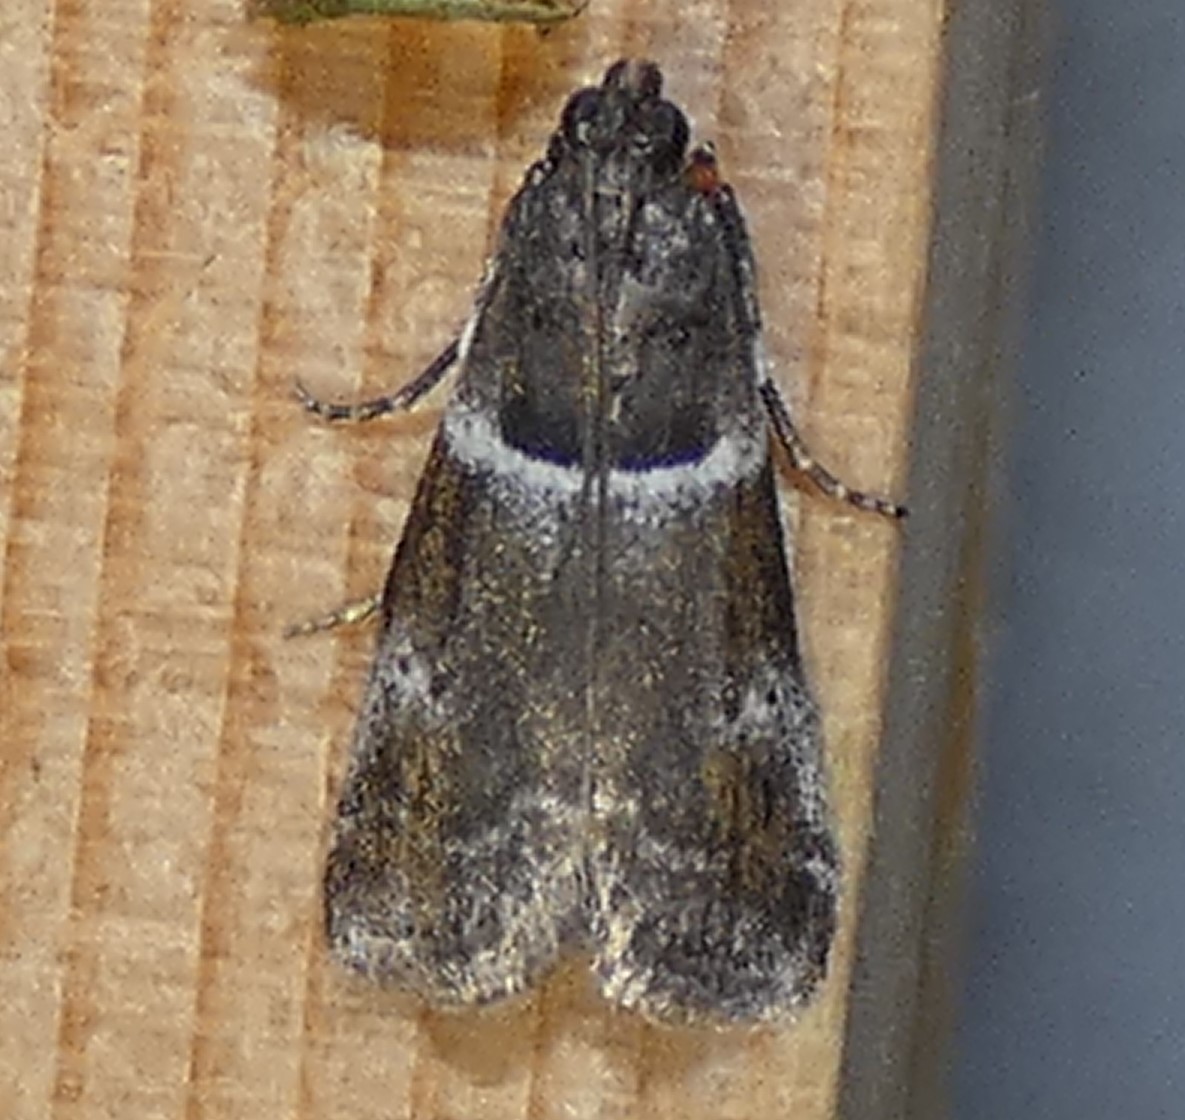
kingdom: Animalia
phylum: Arthropoda
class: Insecta
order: Lepidoptera
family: Pyralidae
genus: Quasisalebria
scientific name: Quasisalebria atratella
